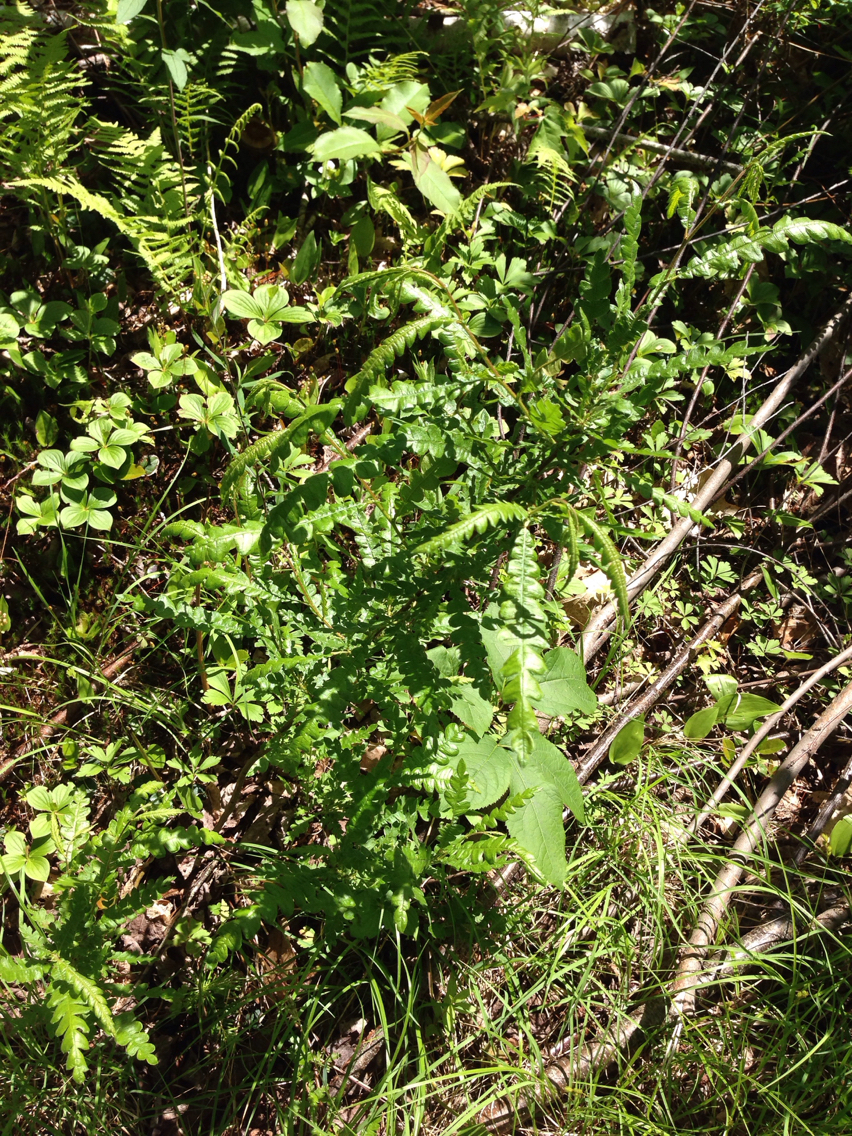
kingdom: Plantae
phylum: Tracheophyta
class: Magnoliopsida
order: Fagales
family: Myricaceae
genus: Comptonia
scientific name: Comptonia peregrina
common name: Sweet-fern
